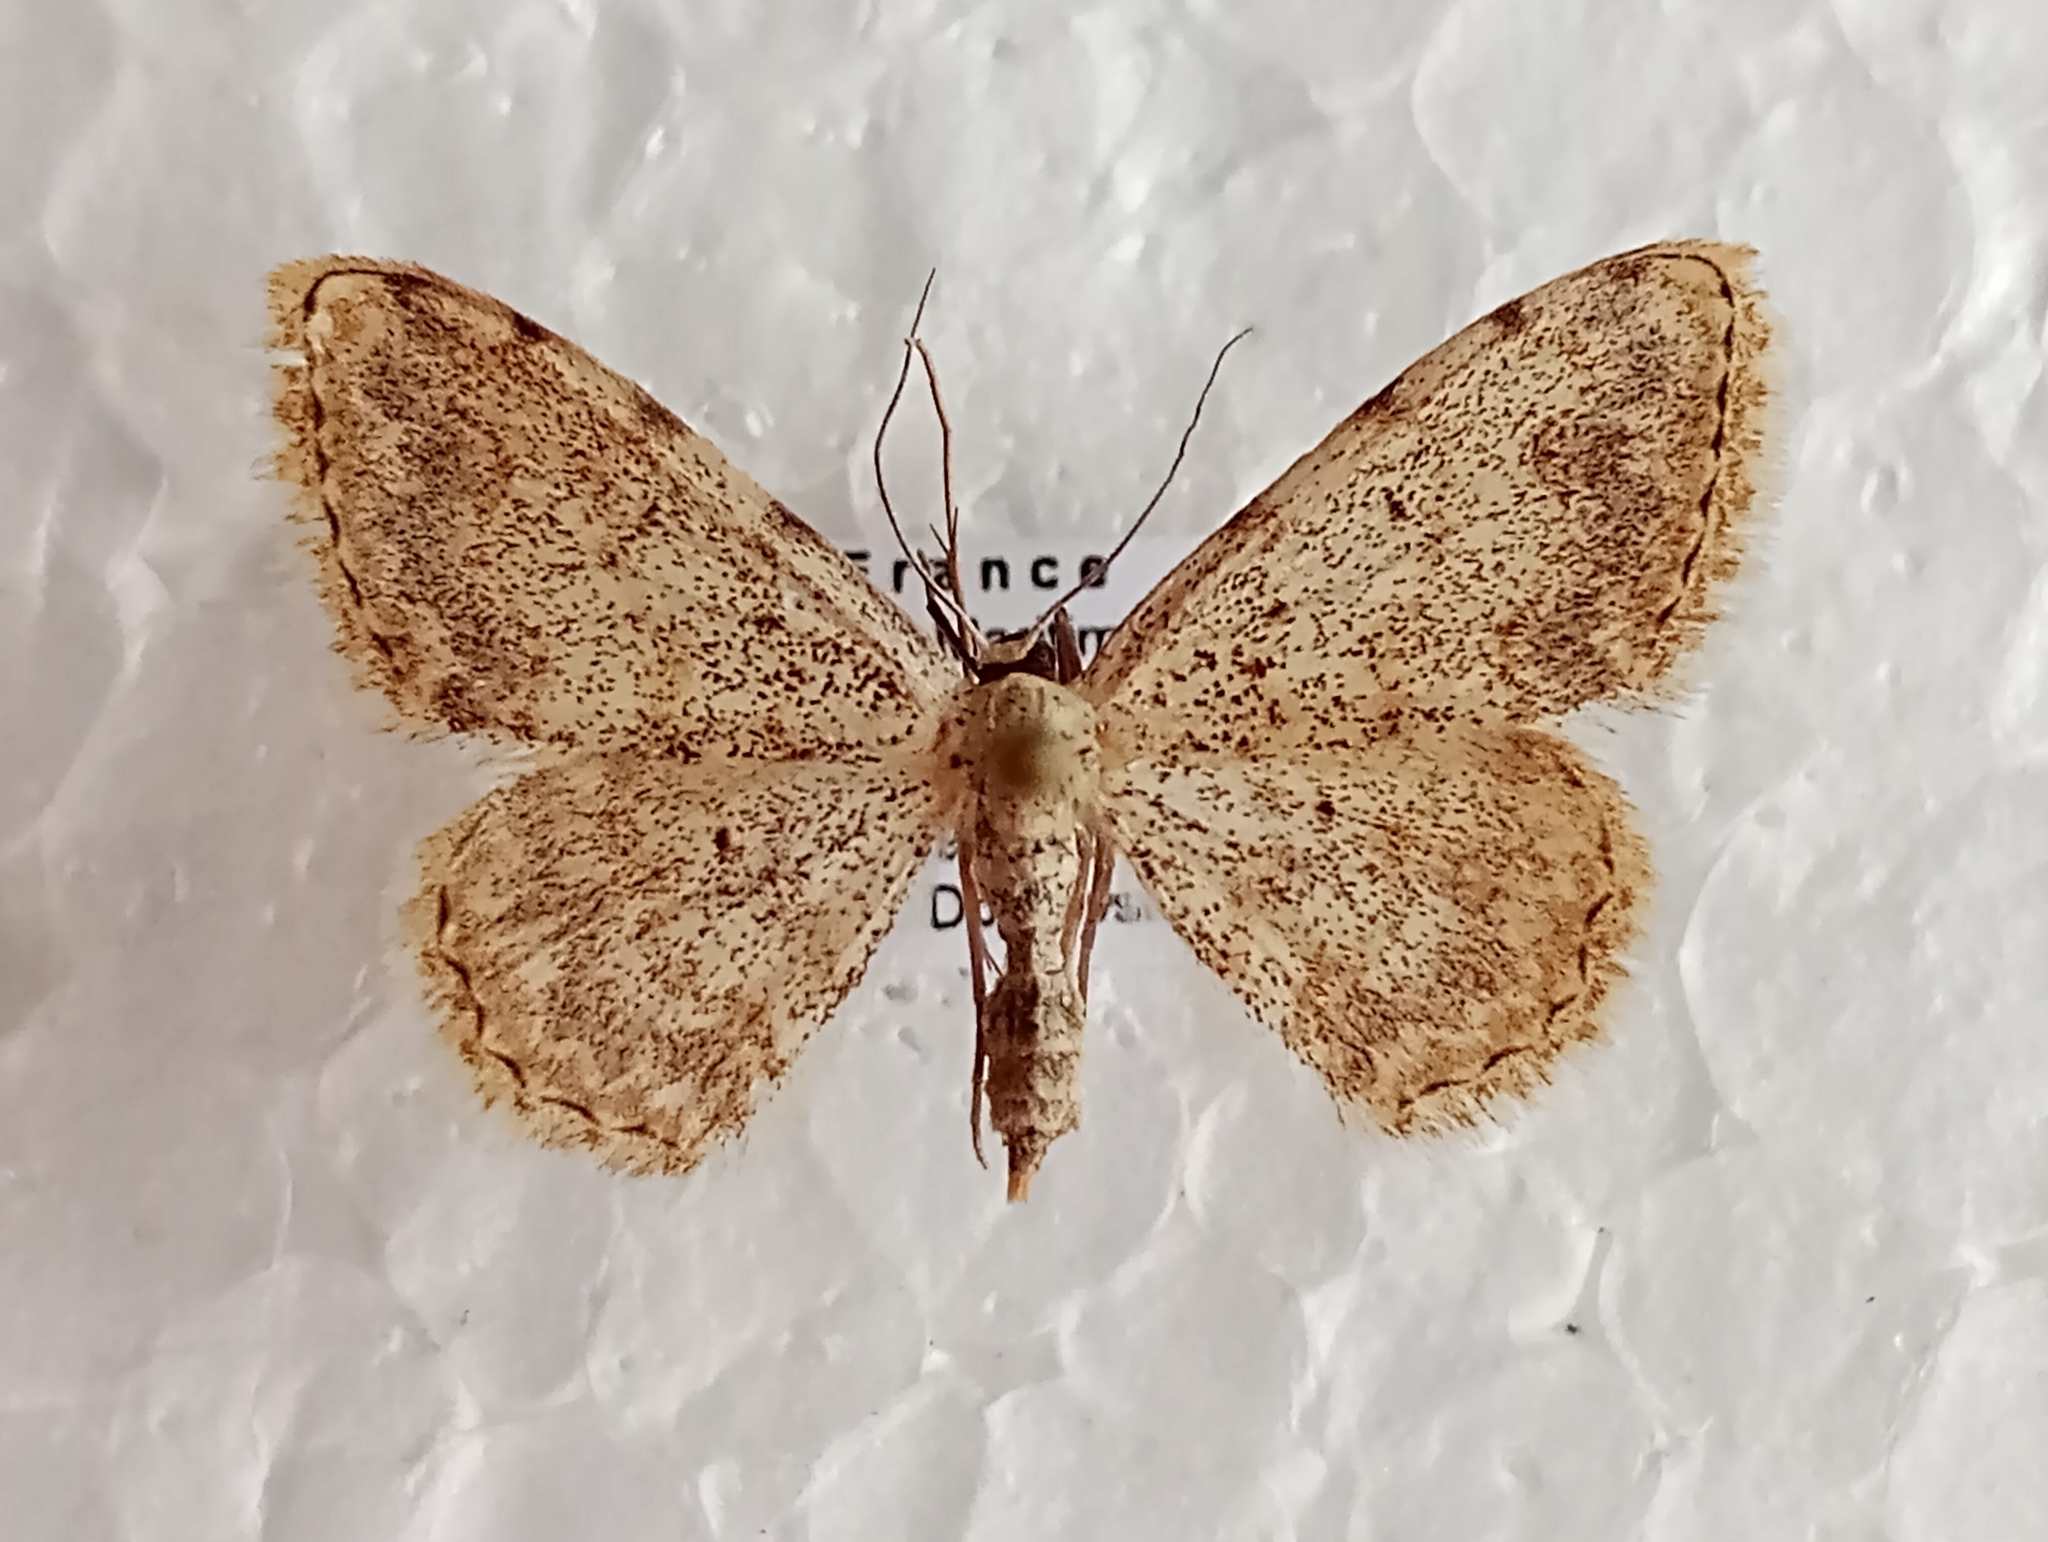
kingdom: Animalia
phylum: Arthropoda
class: Insecta
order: Lepidoptera
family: Geometridae
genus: Scopula
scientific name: Scopula submutata
